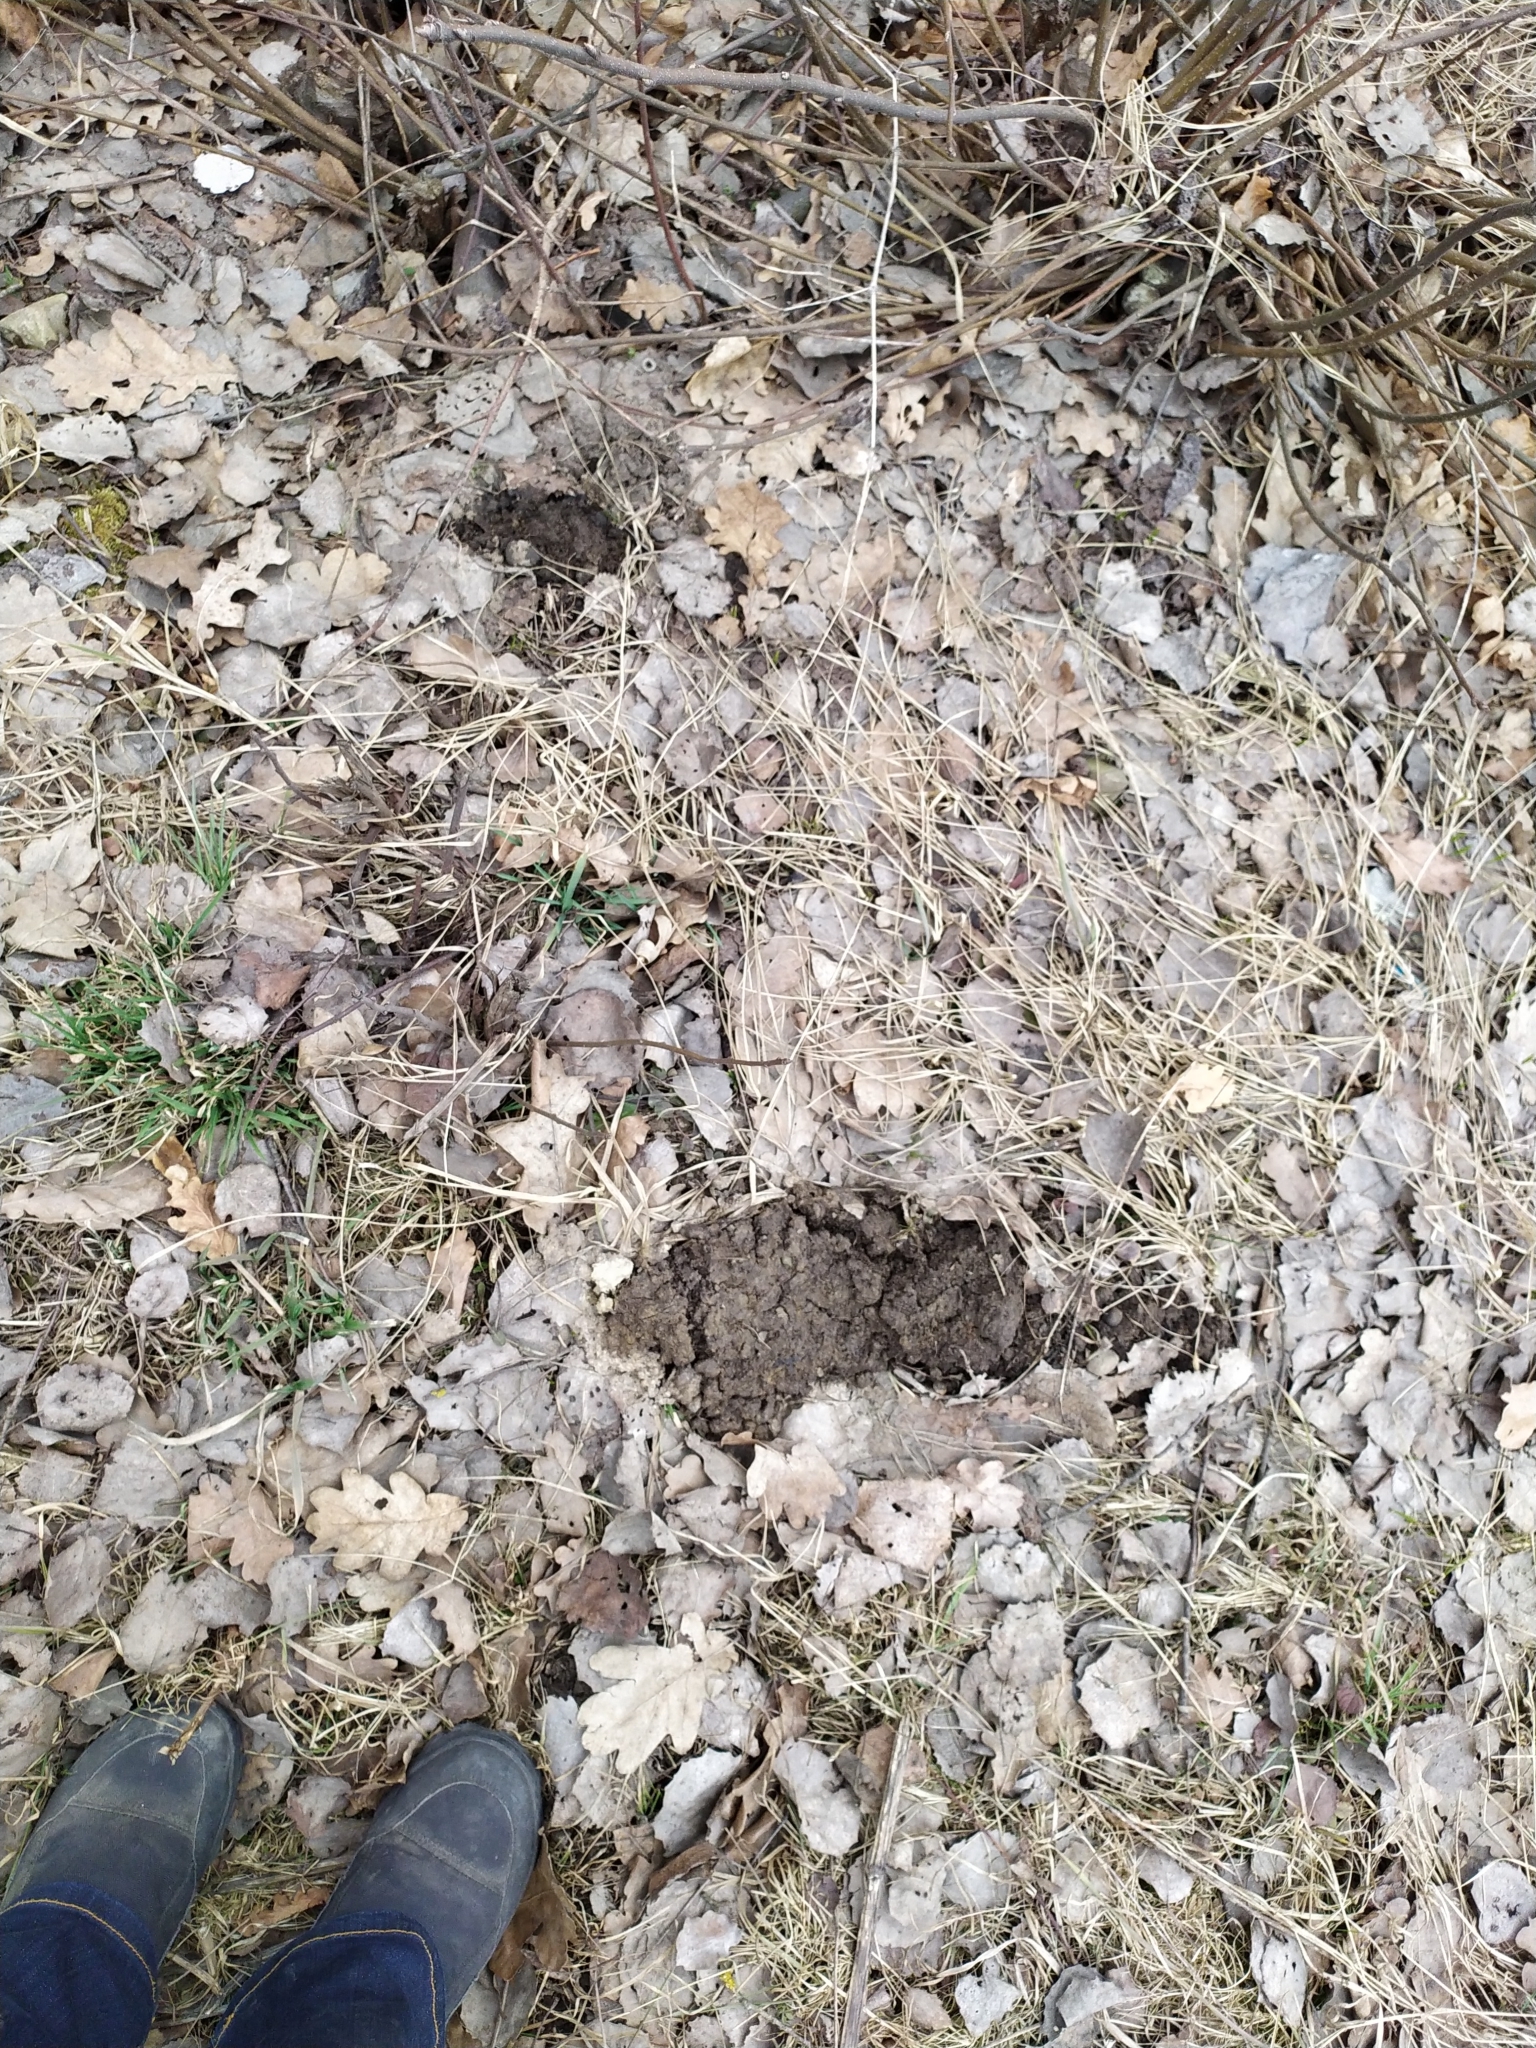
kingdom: Animalia
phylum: Chordata
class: Mammalia
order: Soricomorpha
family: Talpidae
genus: Talpa
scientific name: Talpa europaea
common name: European mole
